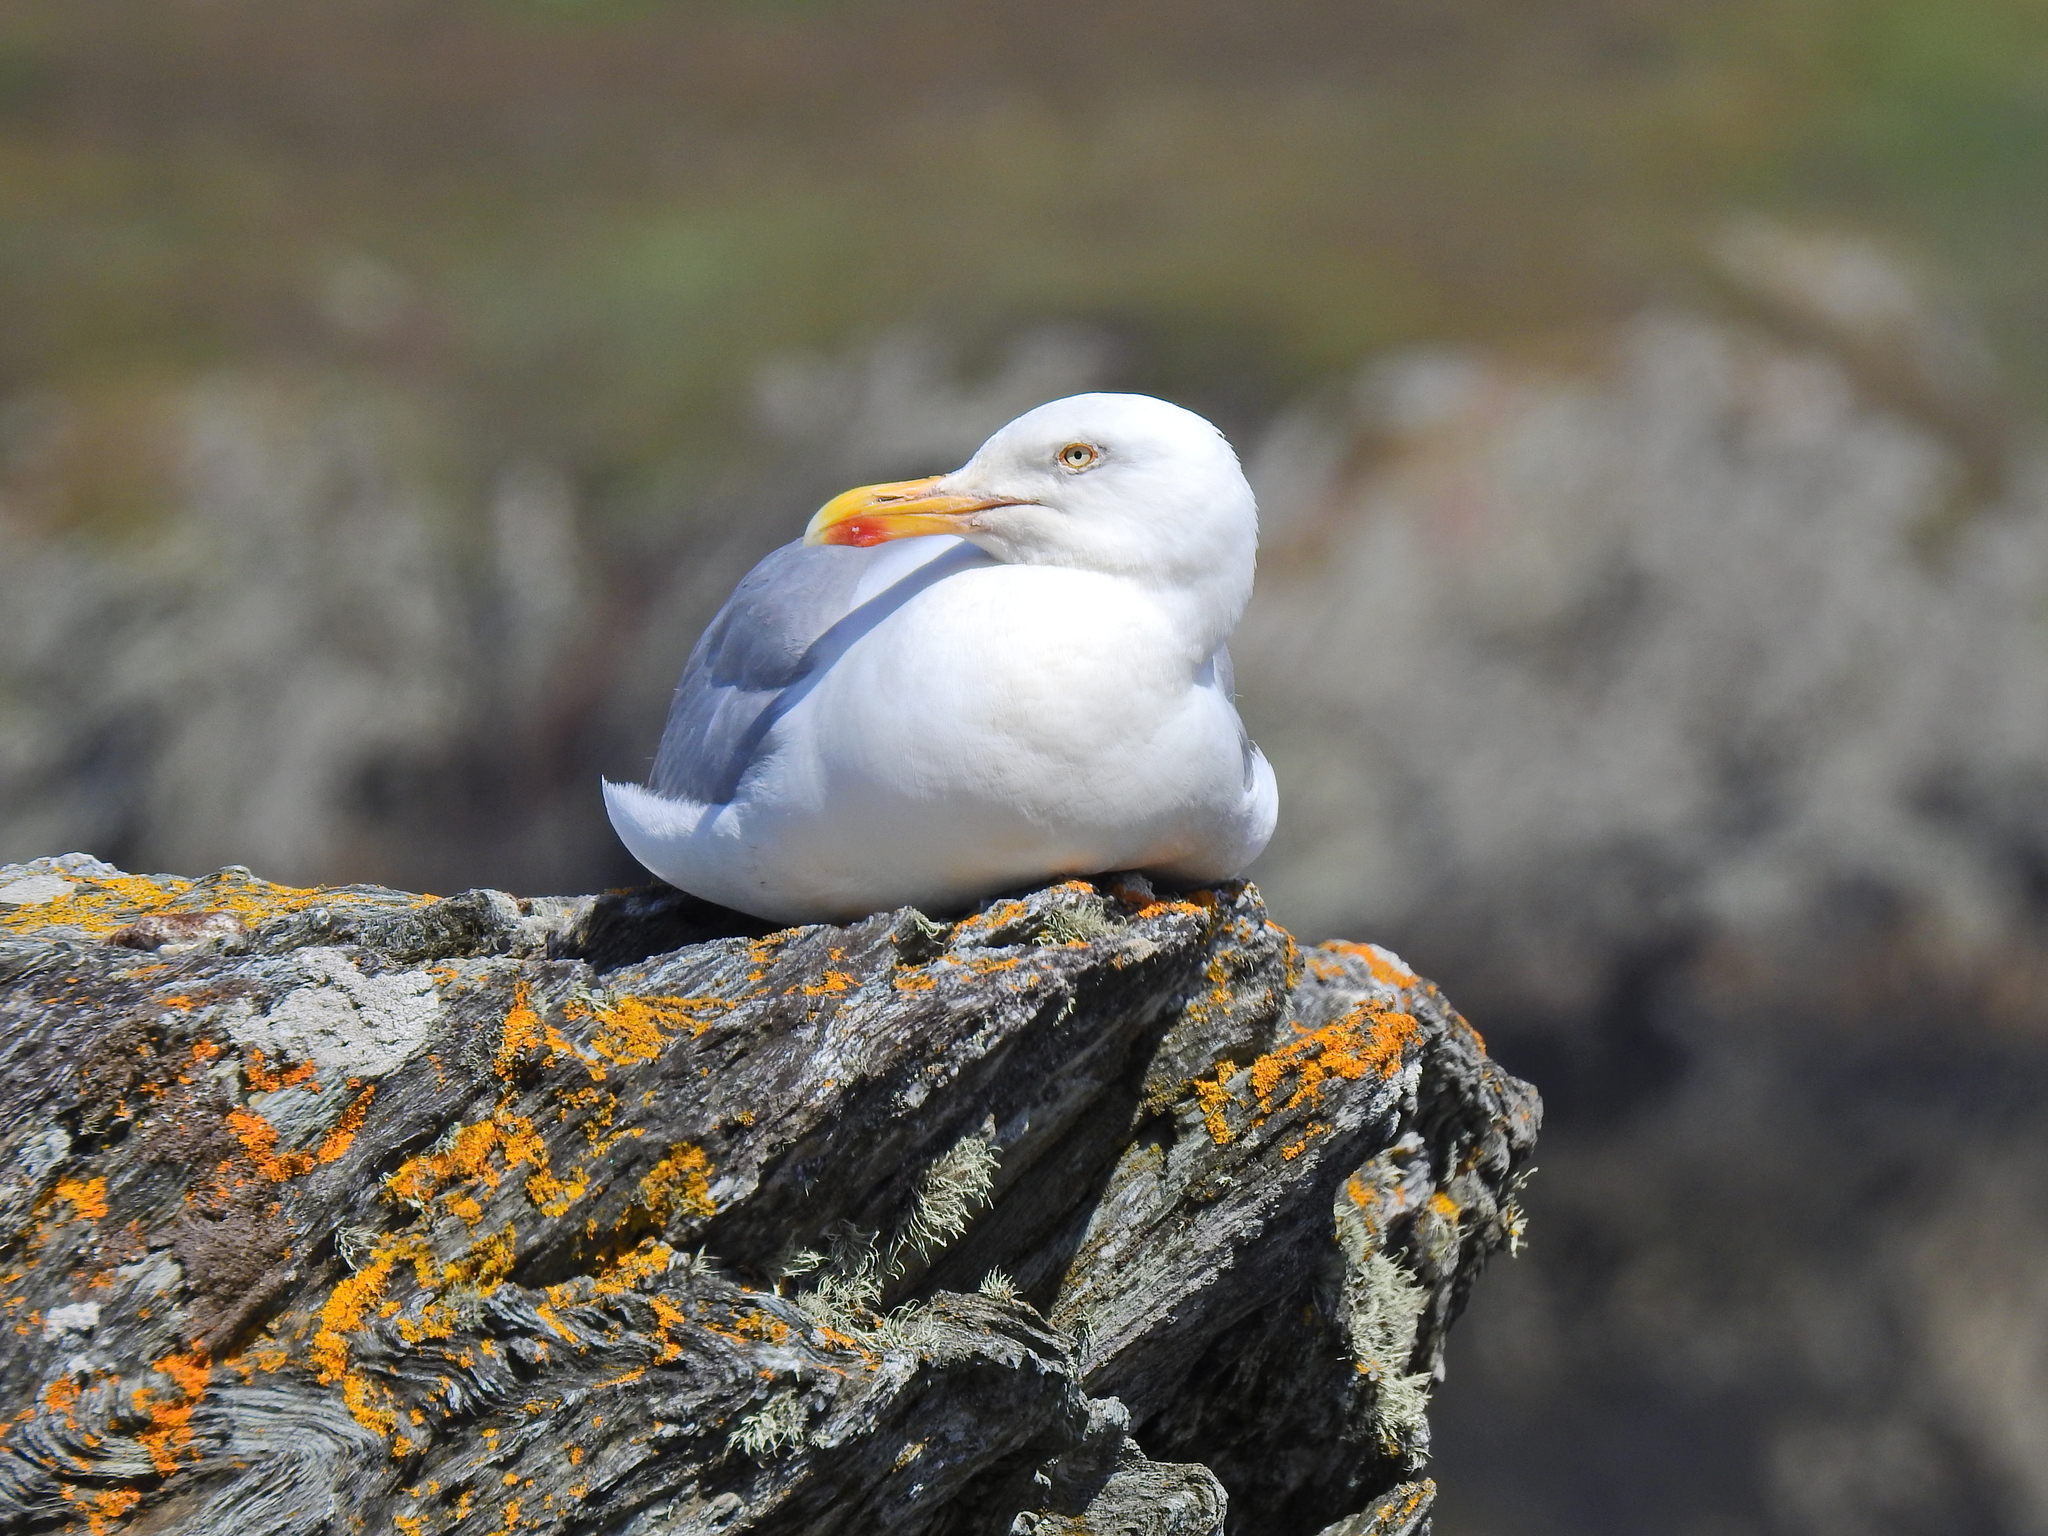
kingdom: Animalia
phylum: Chordata
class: Aves
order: Charadriiformes
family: Laridae
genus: Larus
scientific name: Larus argentatus
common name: Herring gull
